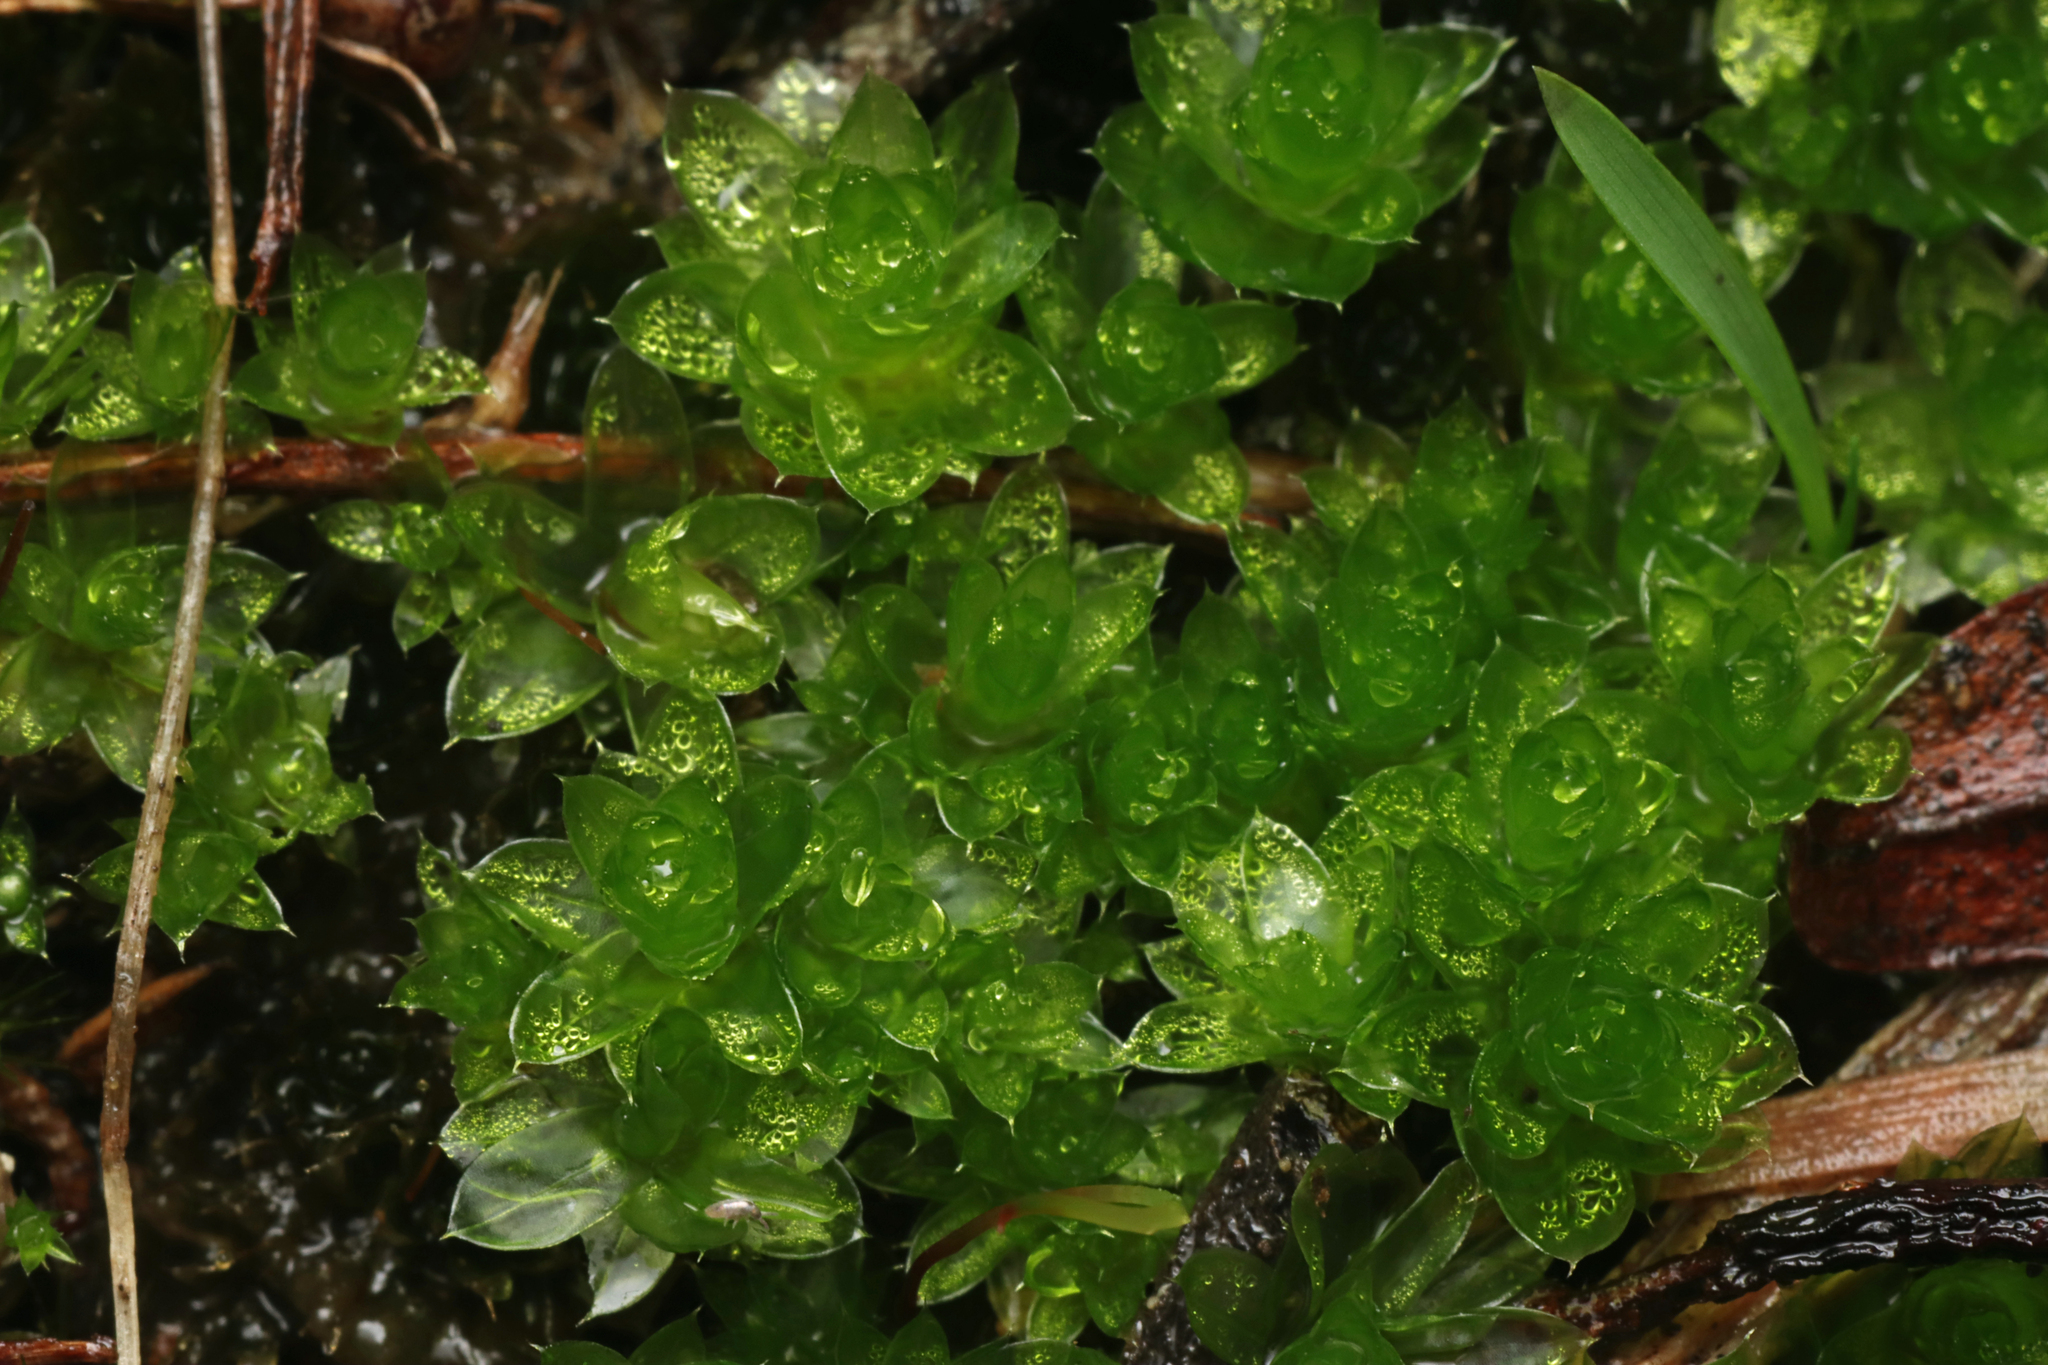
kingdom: Plantae
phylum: Bryophyta
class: Bryopsida
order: Bryales
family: Bryaceae
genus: Rosulabryum
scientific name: Rosulabryum billardierei
